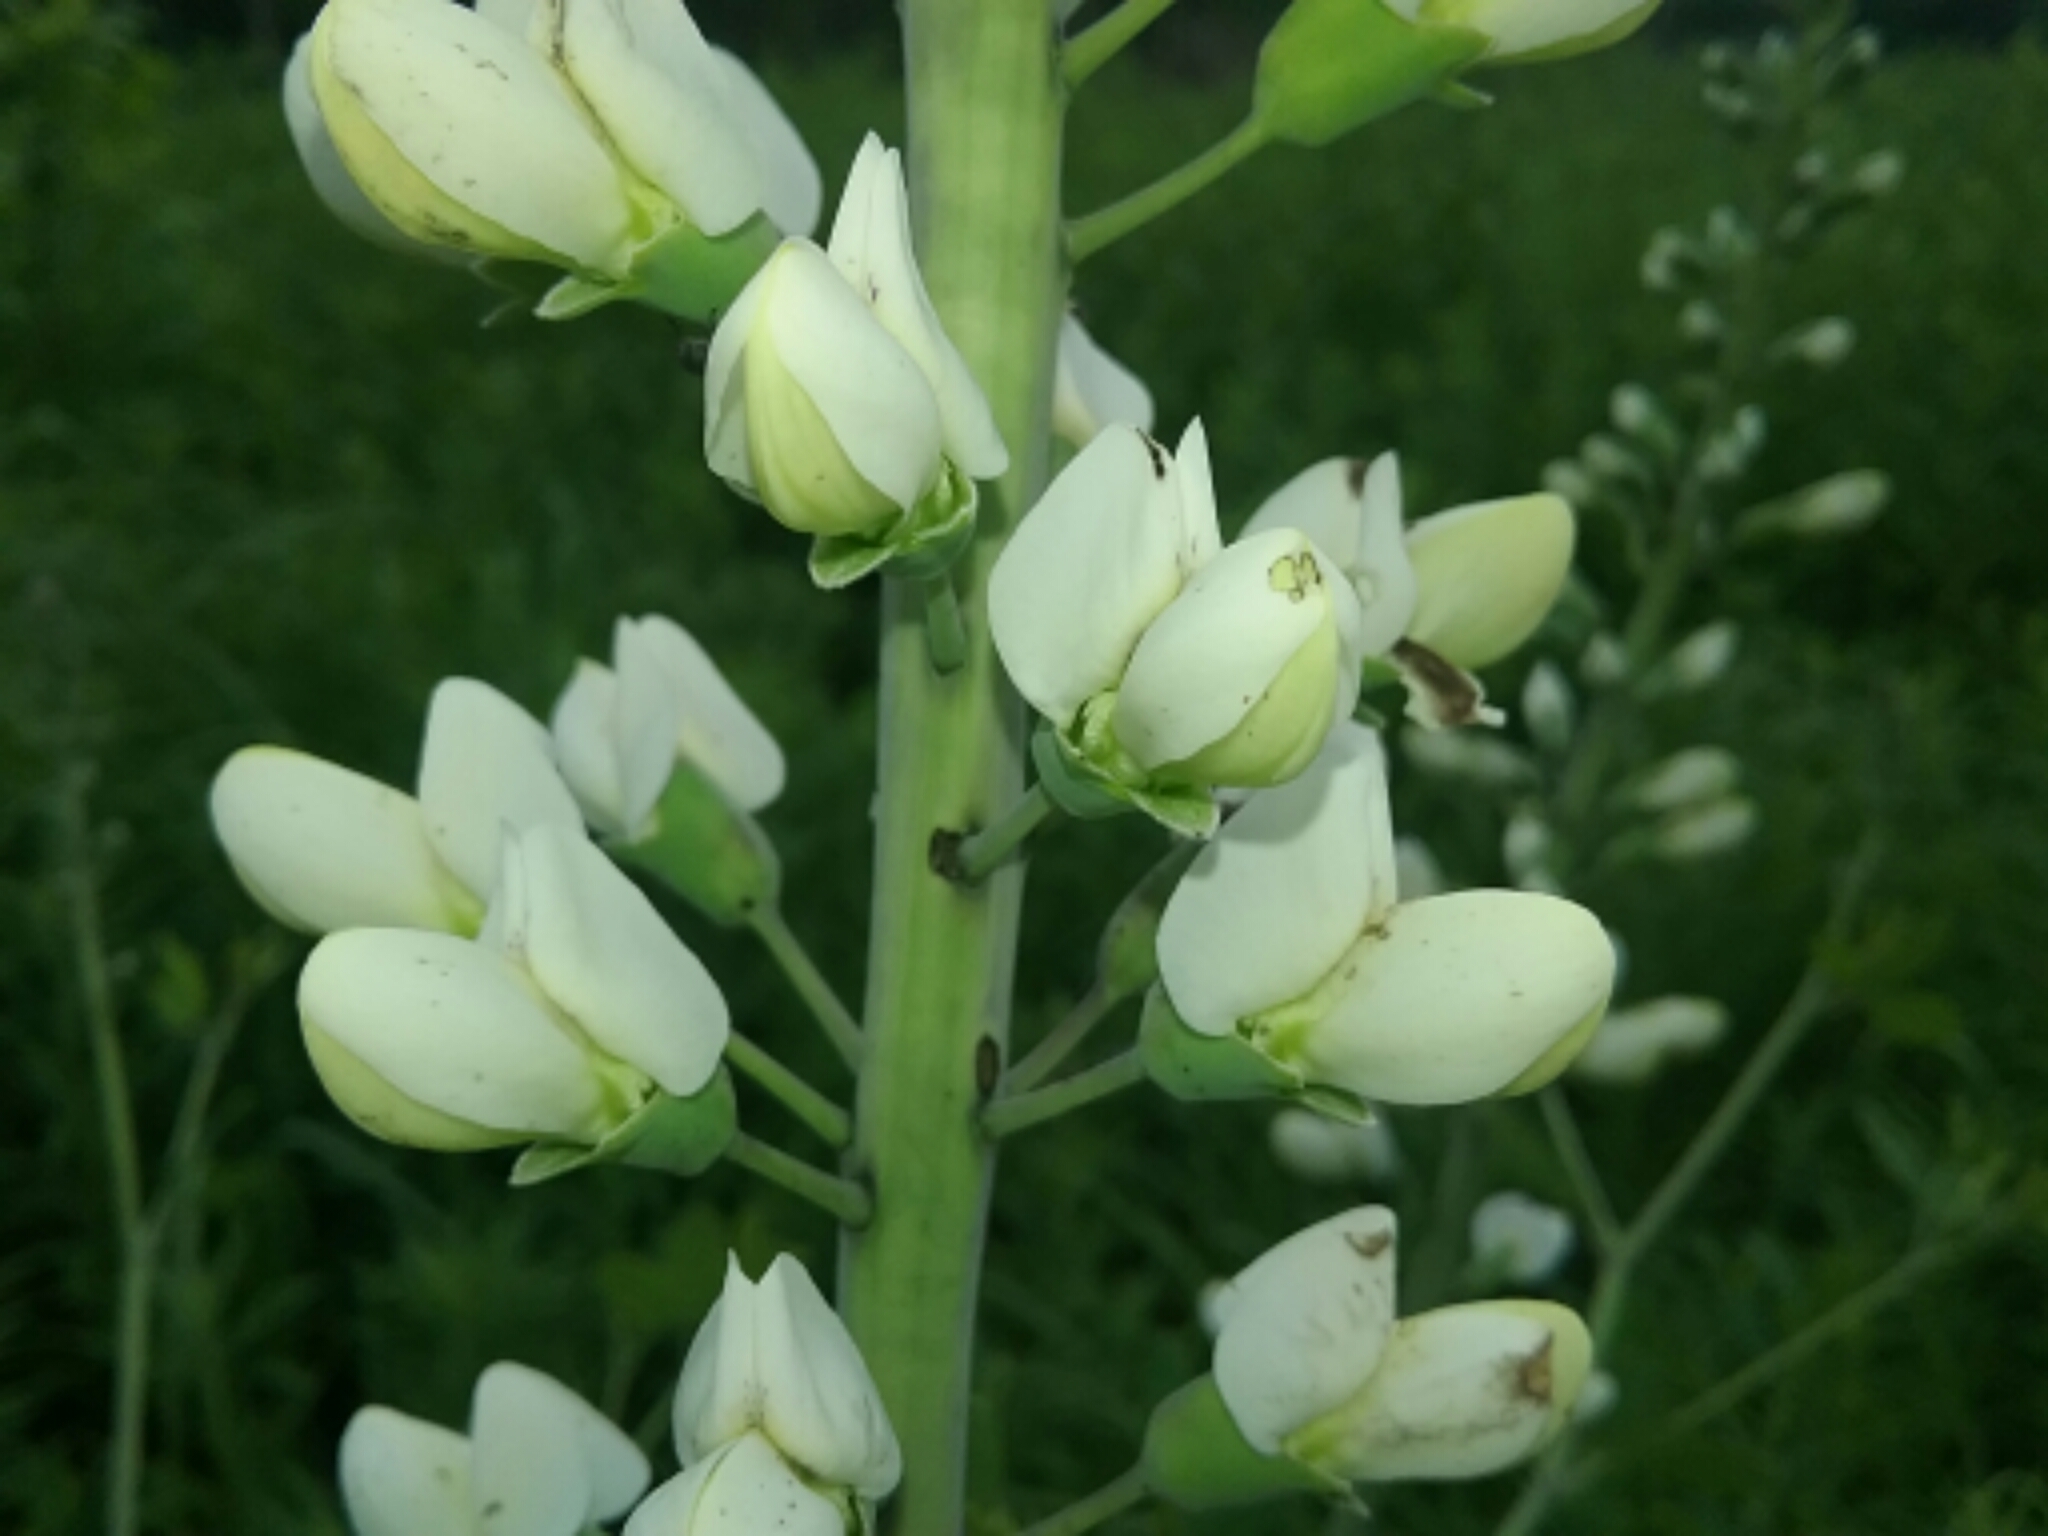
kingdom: Plantae
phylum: Tracheophyta
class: Magnoliopsida
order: Fabales
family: Fabaceae
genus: Baptisia
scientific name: Baptisia alba
